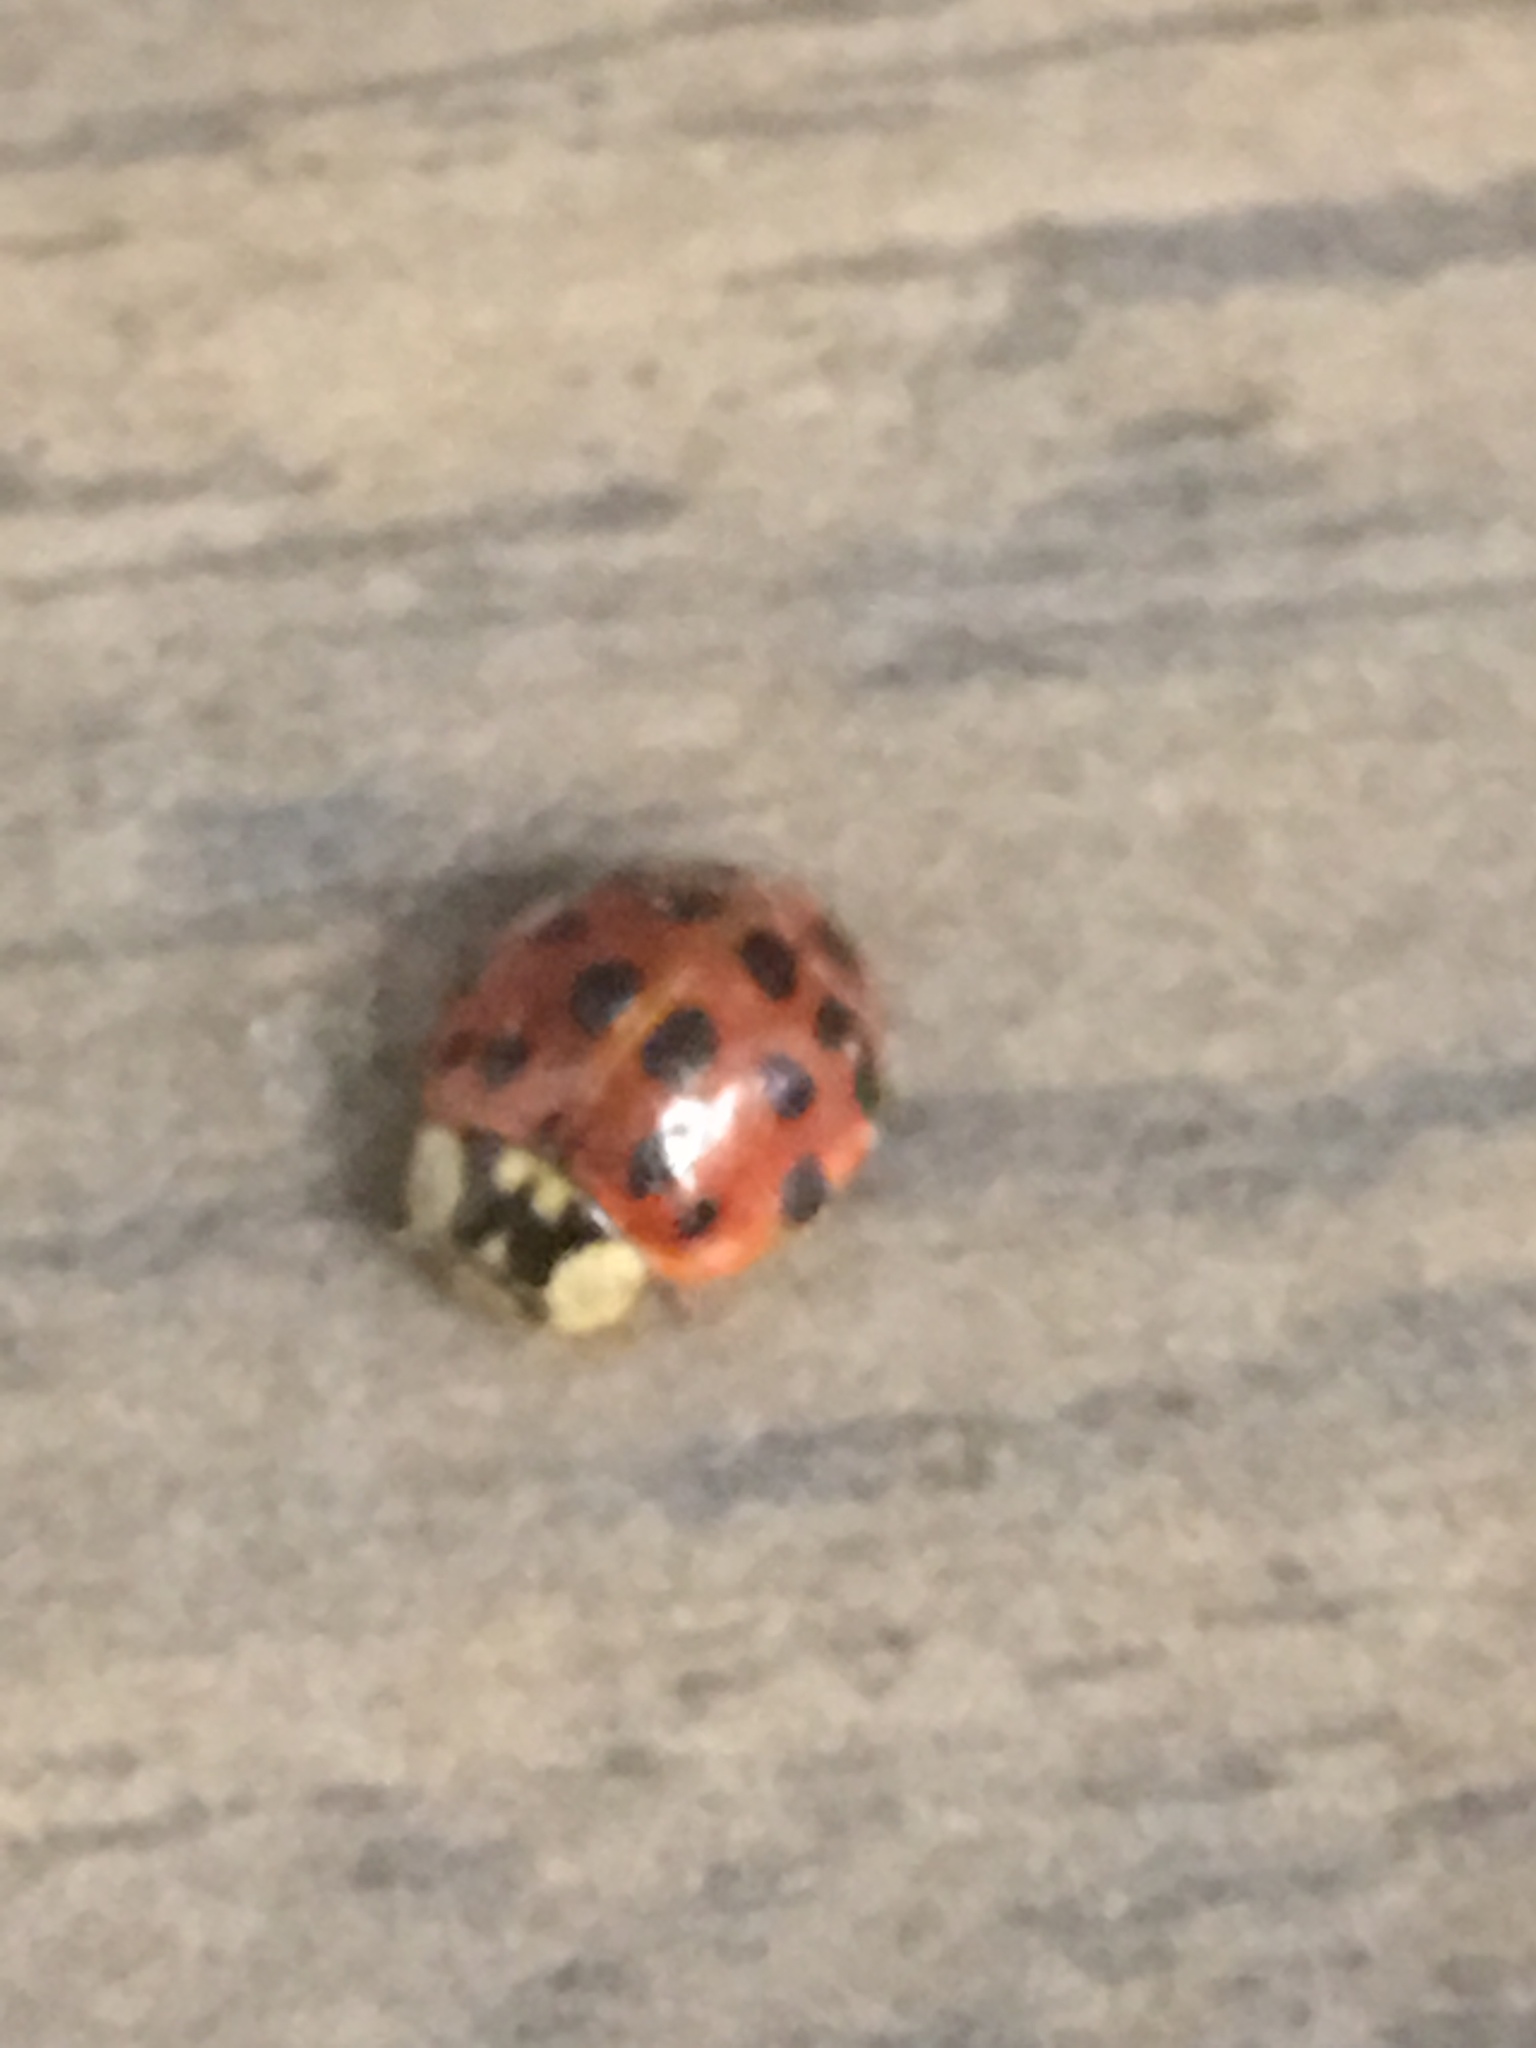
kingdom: Animalia
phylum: Arthropoda
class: Insecta
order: Coleoptera
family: Coccinellidae
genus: Harmonia
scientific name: Harmonia axyridis
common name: Harlequin ladybird
